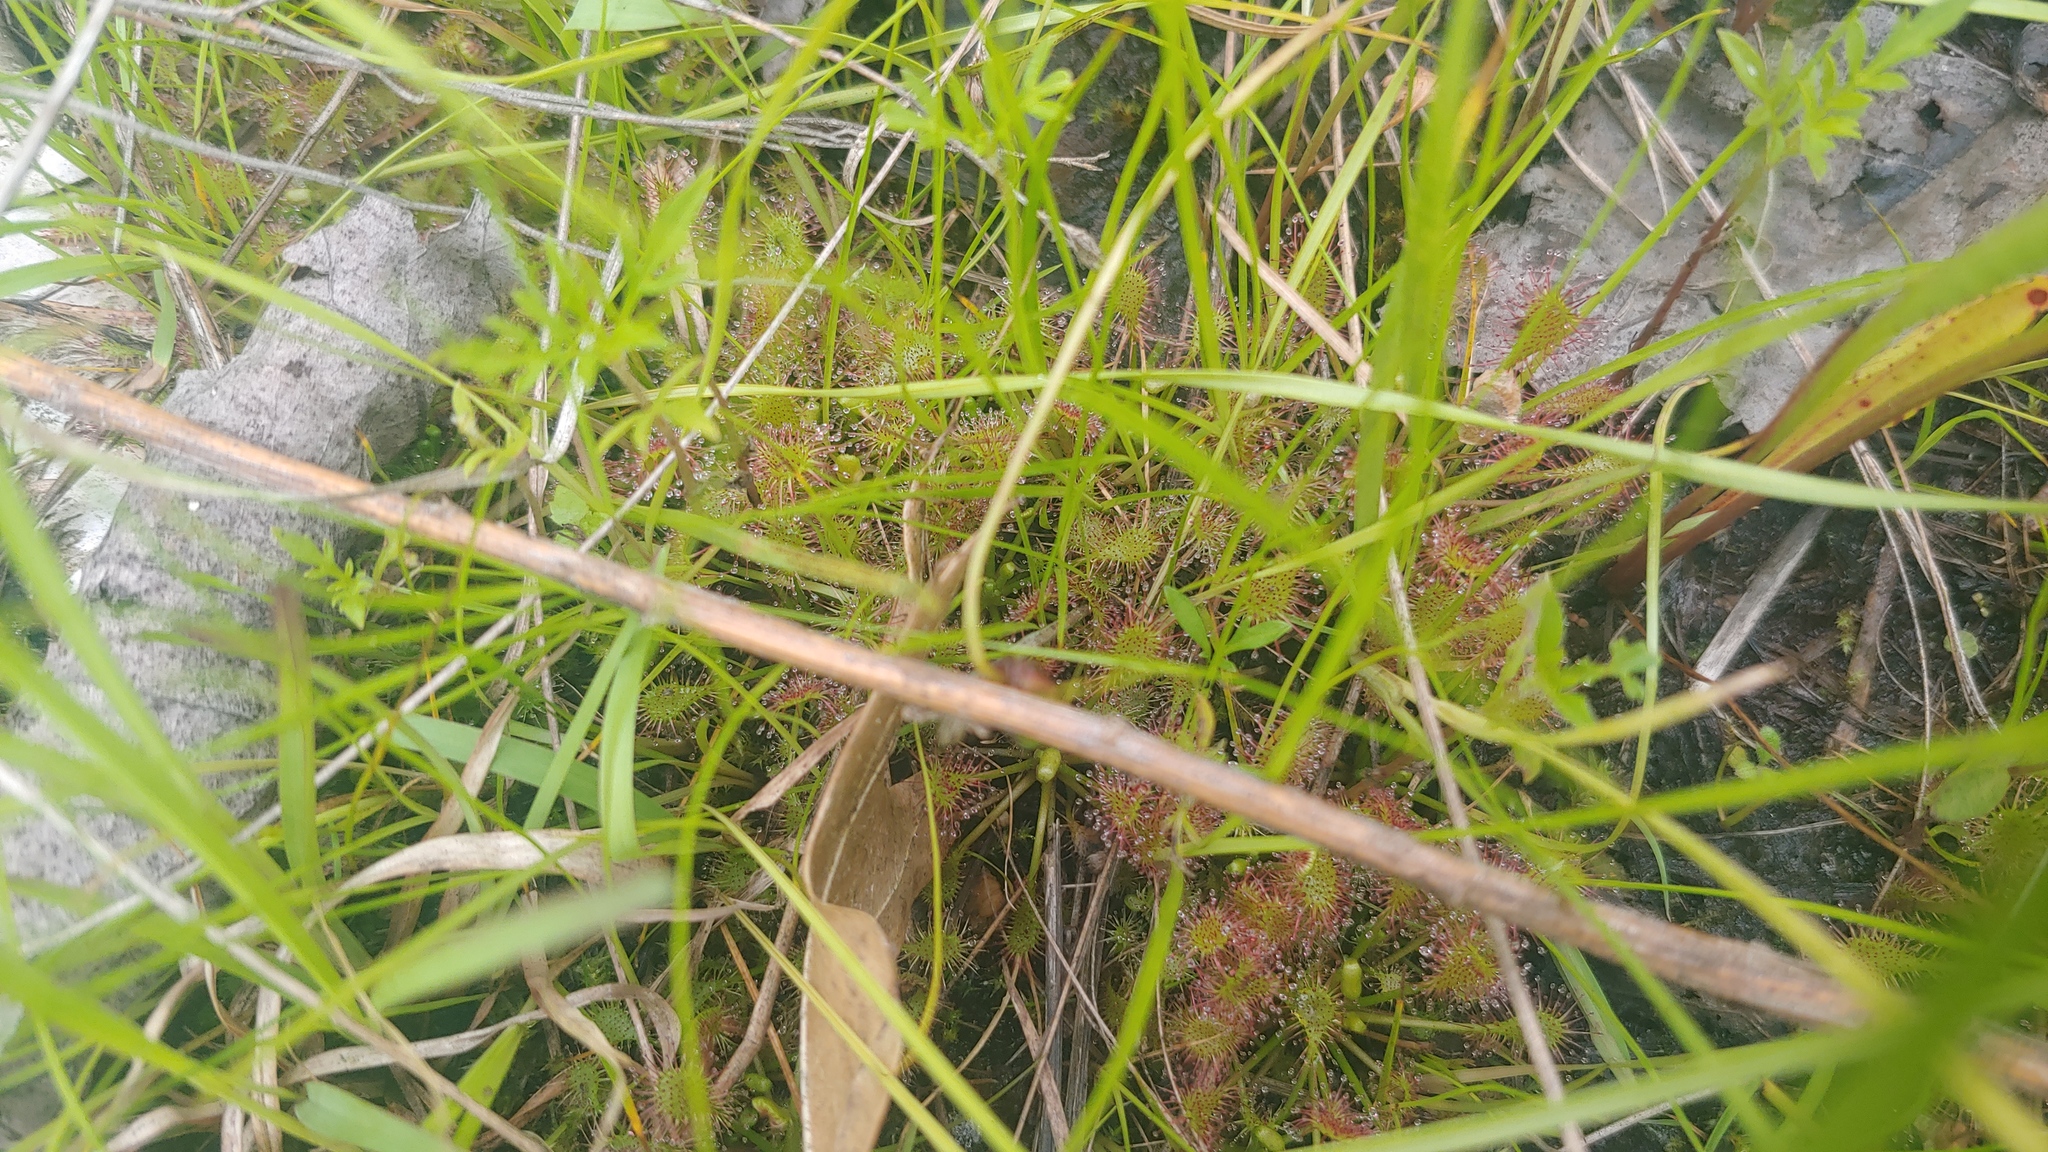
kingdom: Plantae
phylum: Tracheophyta
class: Magnoliopsida
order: Caryophyllales
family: Droseraceae
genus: Drosera
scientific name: Drosera intermedia
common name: Oblong-leaved sundew
